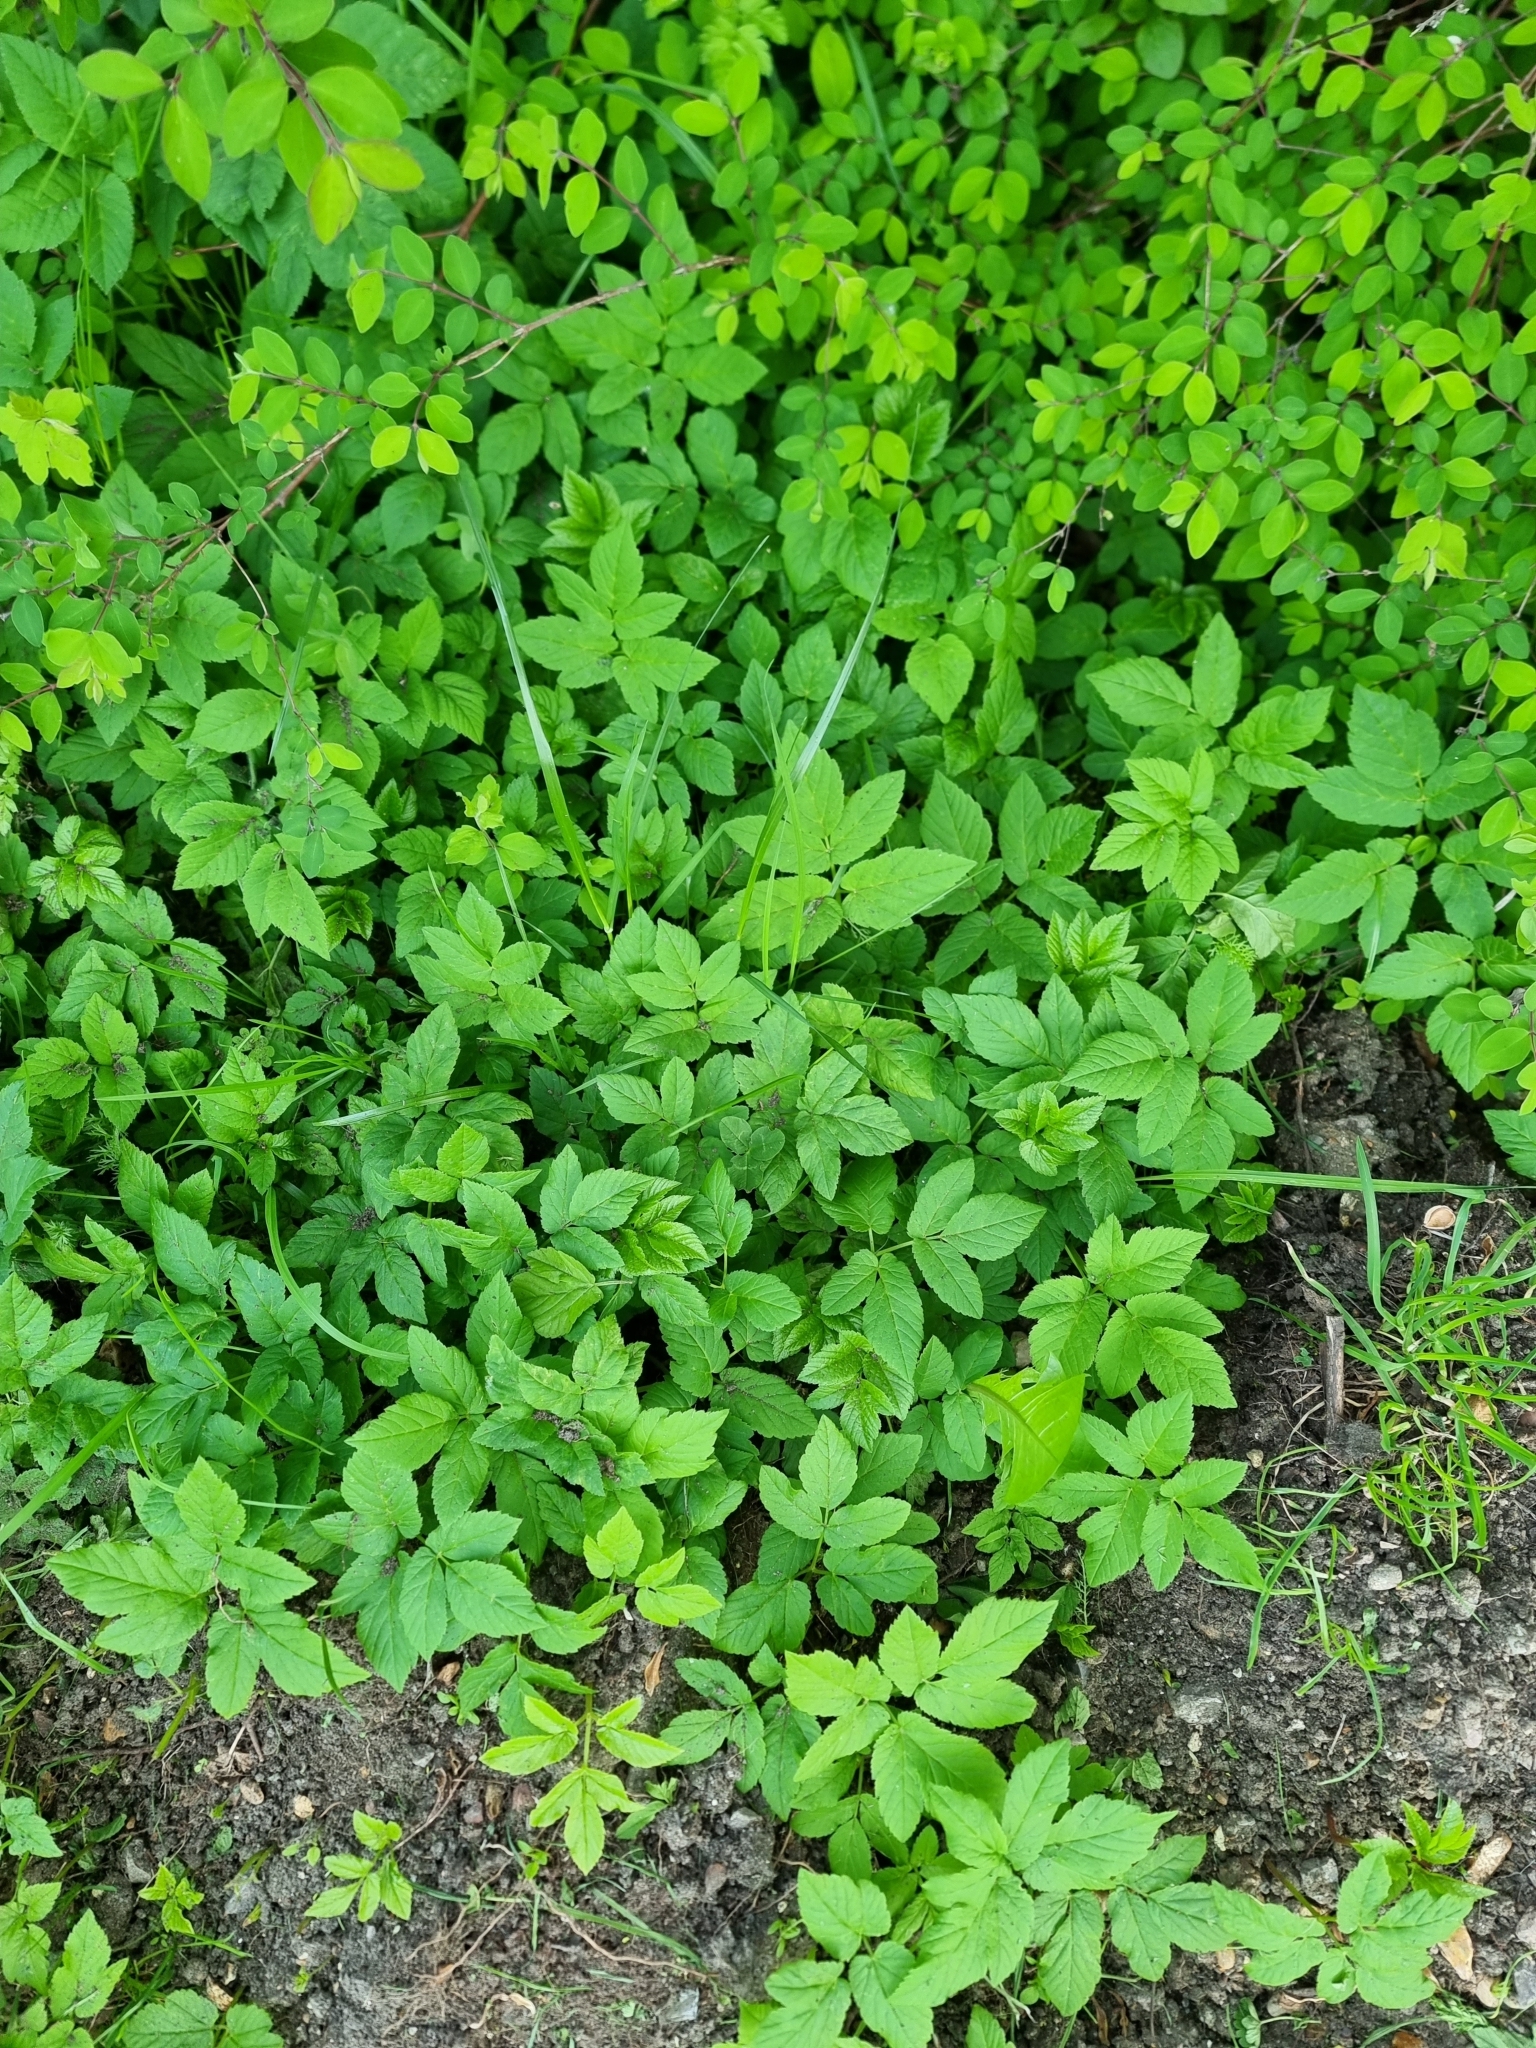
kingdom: Plantae
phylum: Tracheophyta
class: Magnoliopsida
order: Apiales
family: Apiaceae
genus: Aegopodium
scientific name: Aegopodium podagraria
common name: Ground-elder
